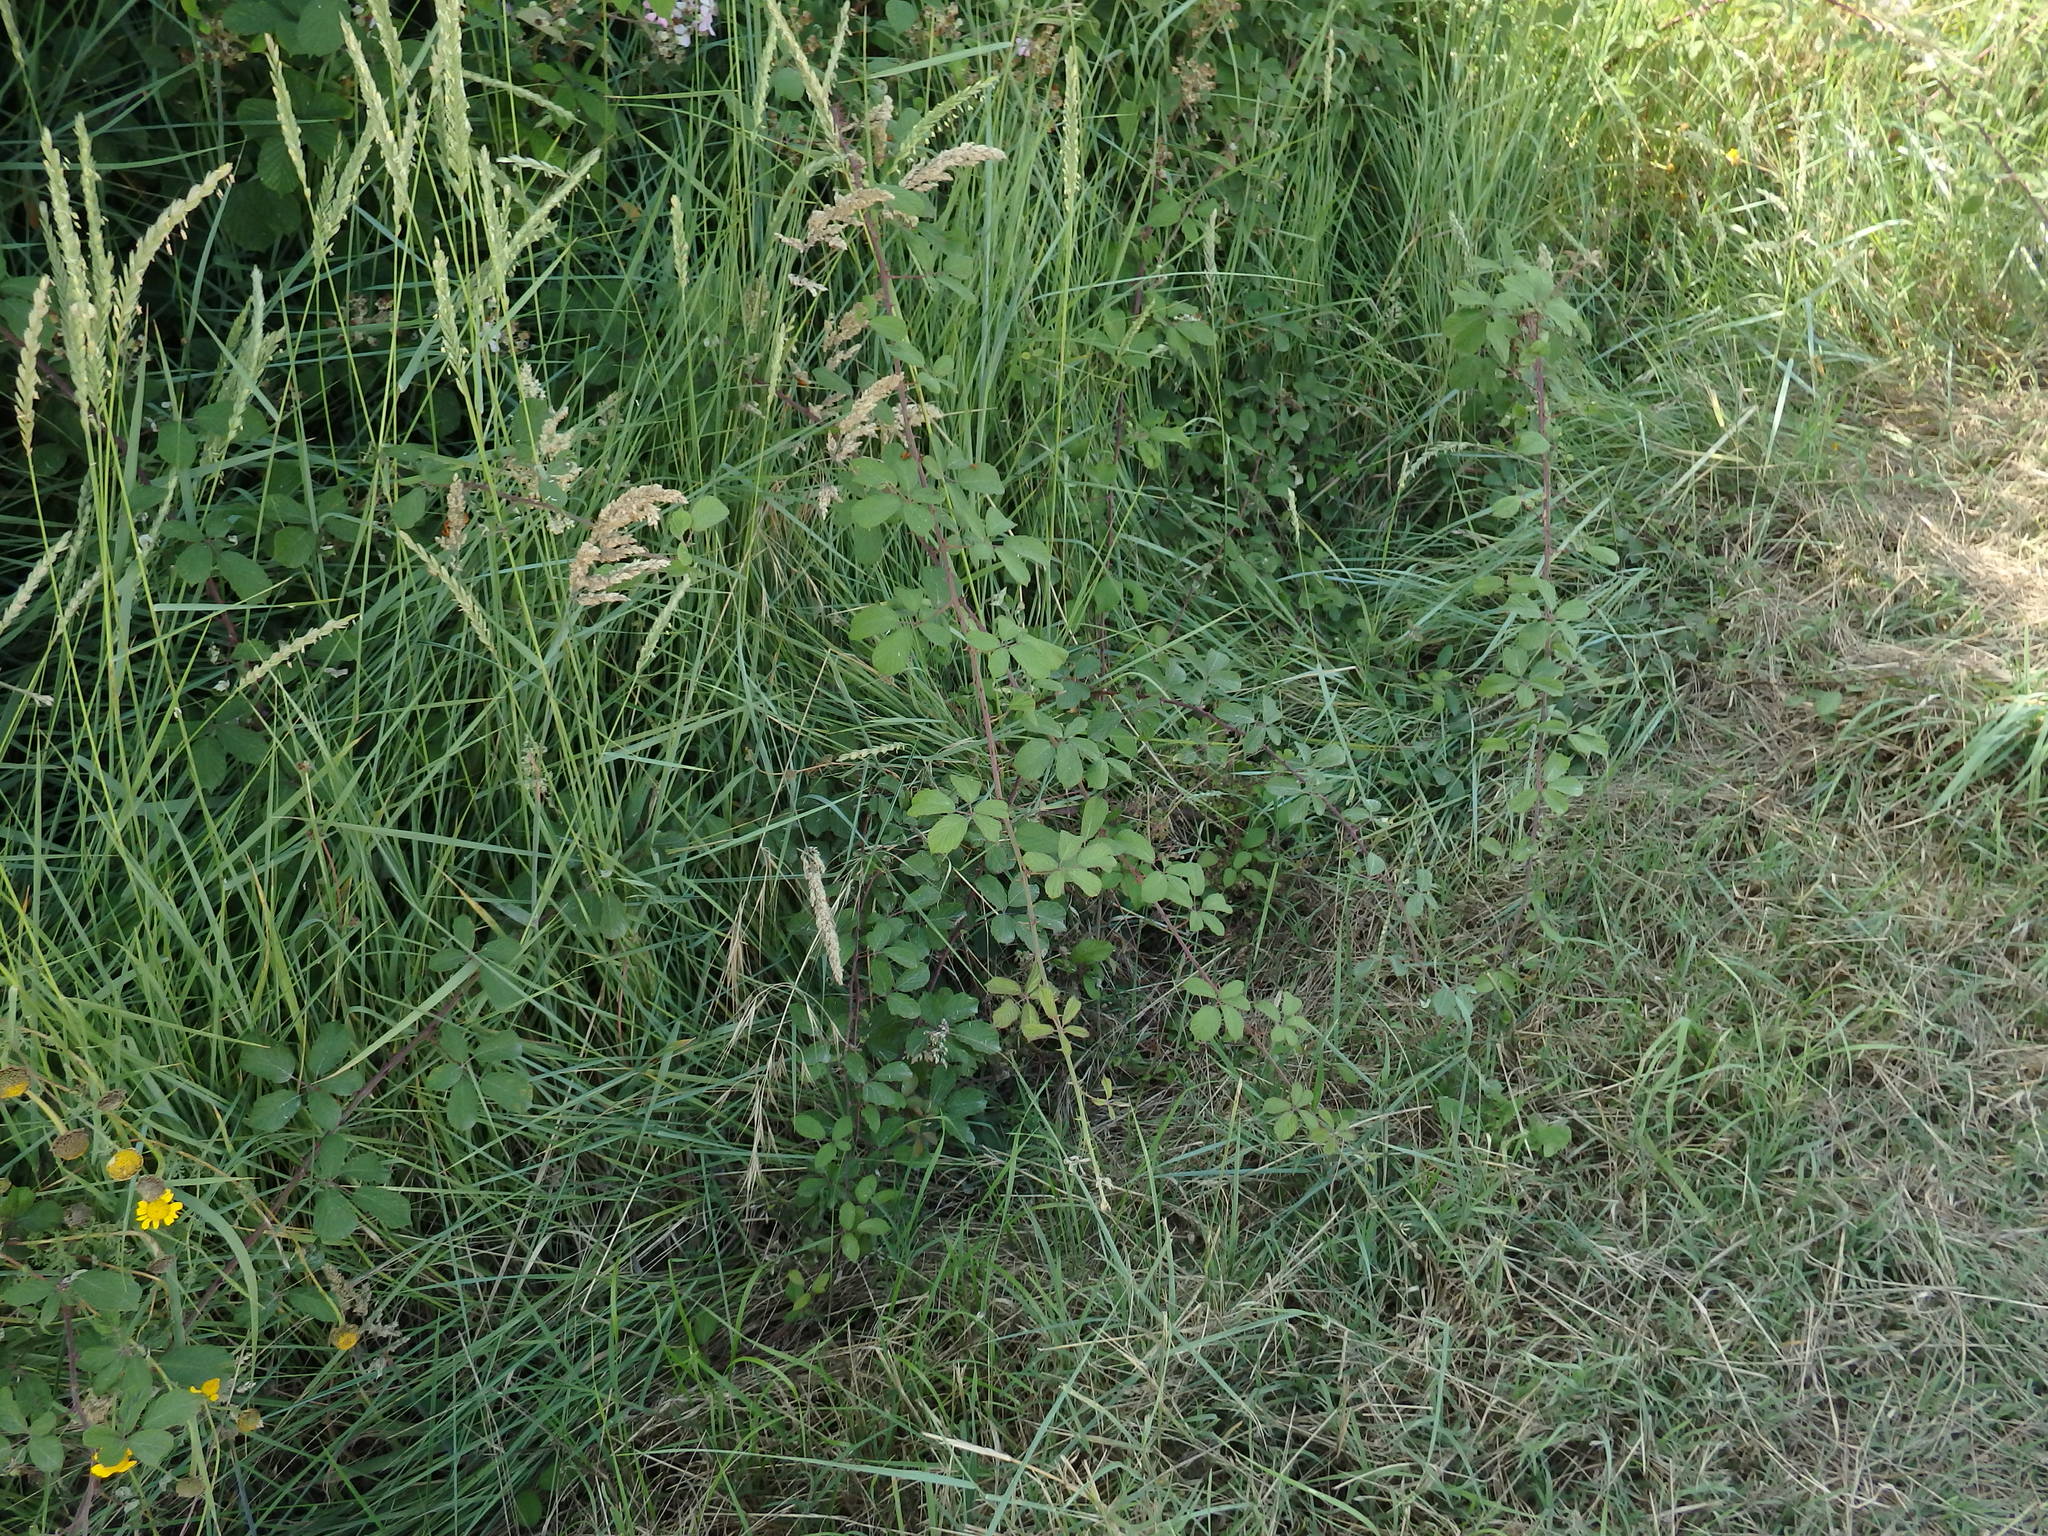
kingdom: Plantae
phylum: Tracheophyta
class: Magnoliopsida
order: Rosales
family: Rosaceae
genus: Rubus
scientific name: Rubus ulmifolius
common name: Elmleaf blackberry
